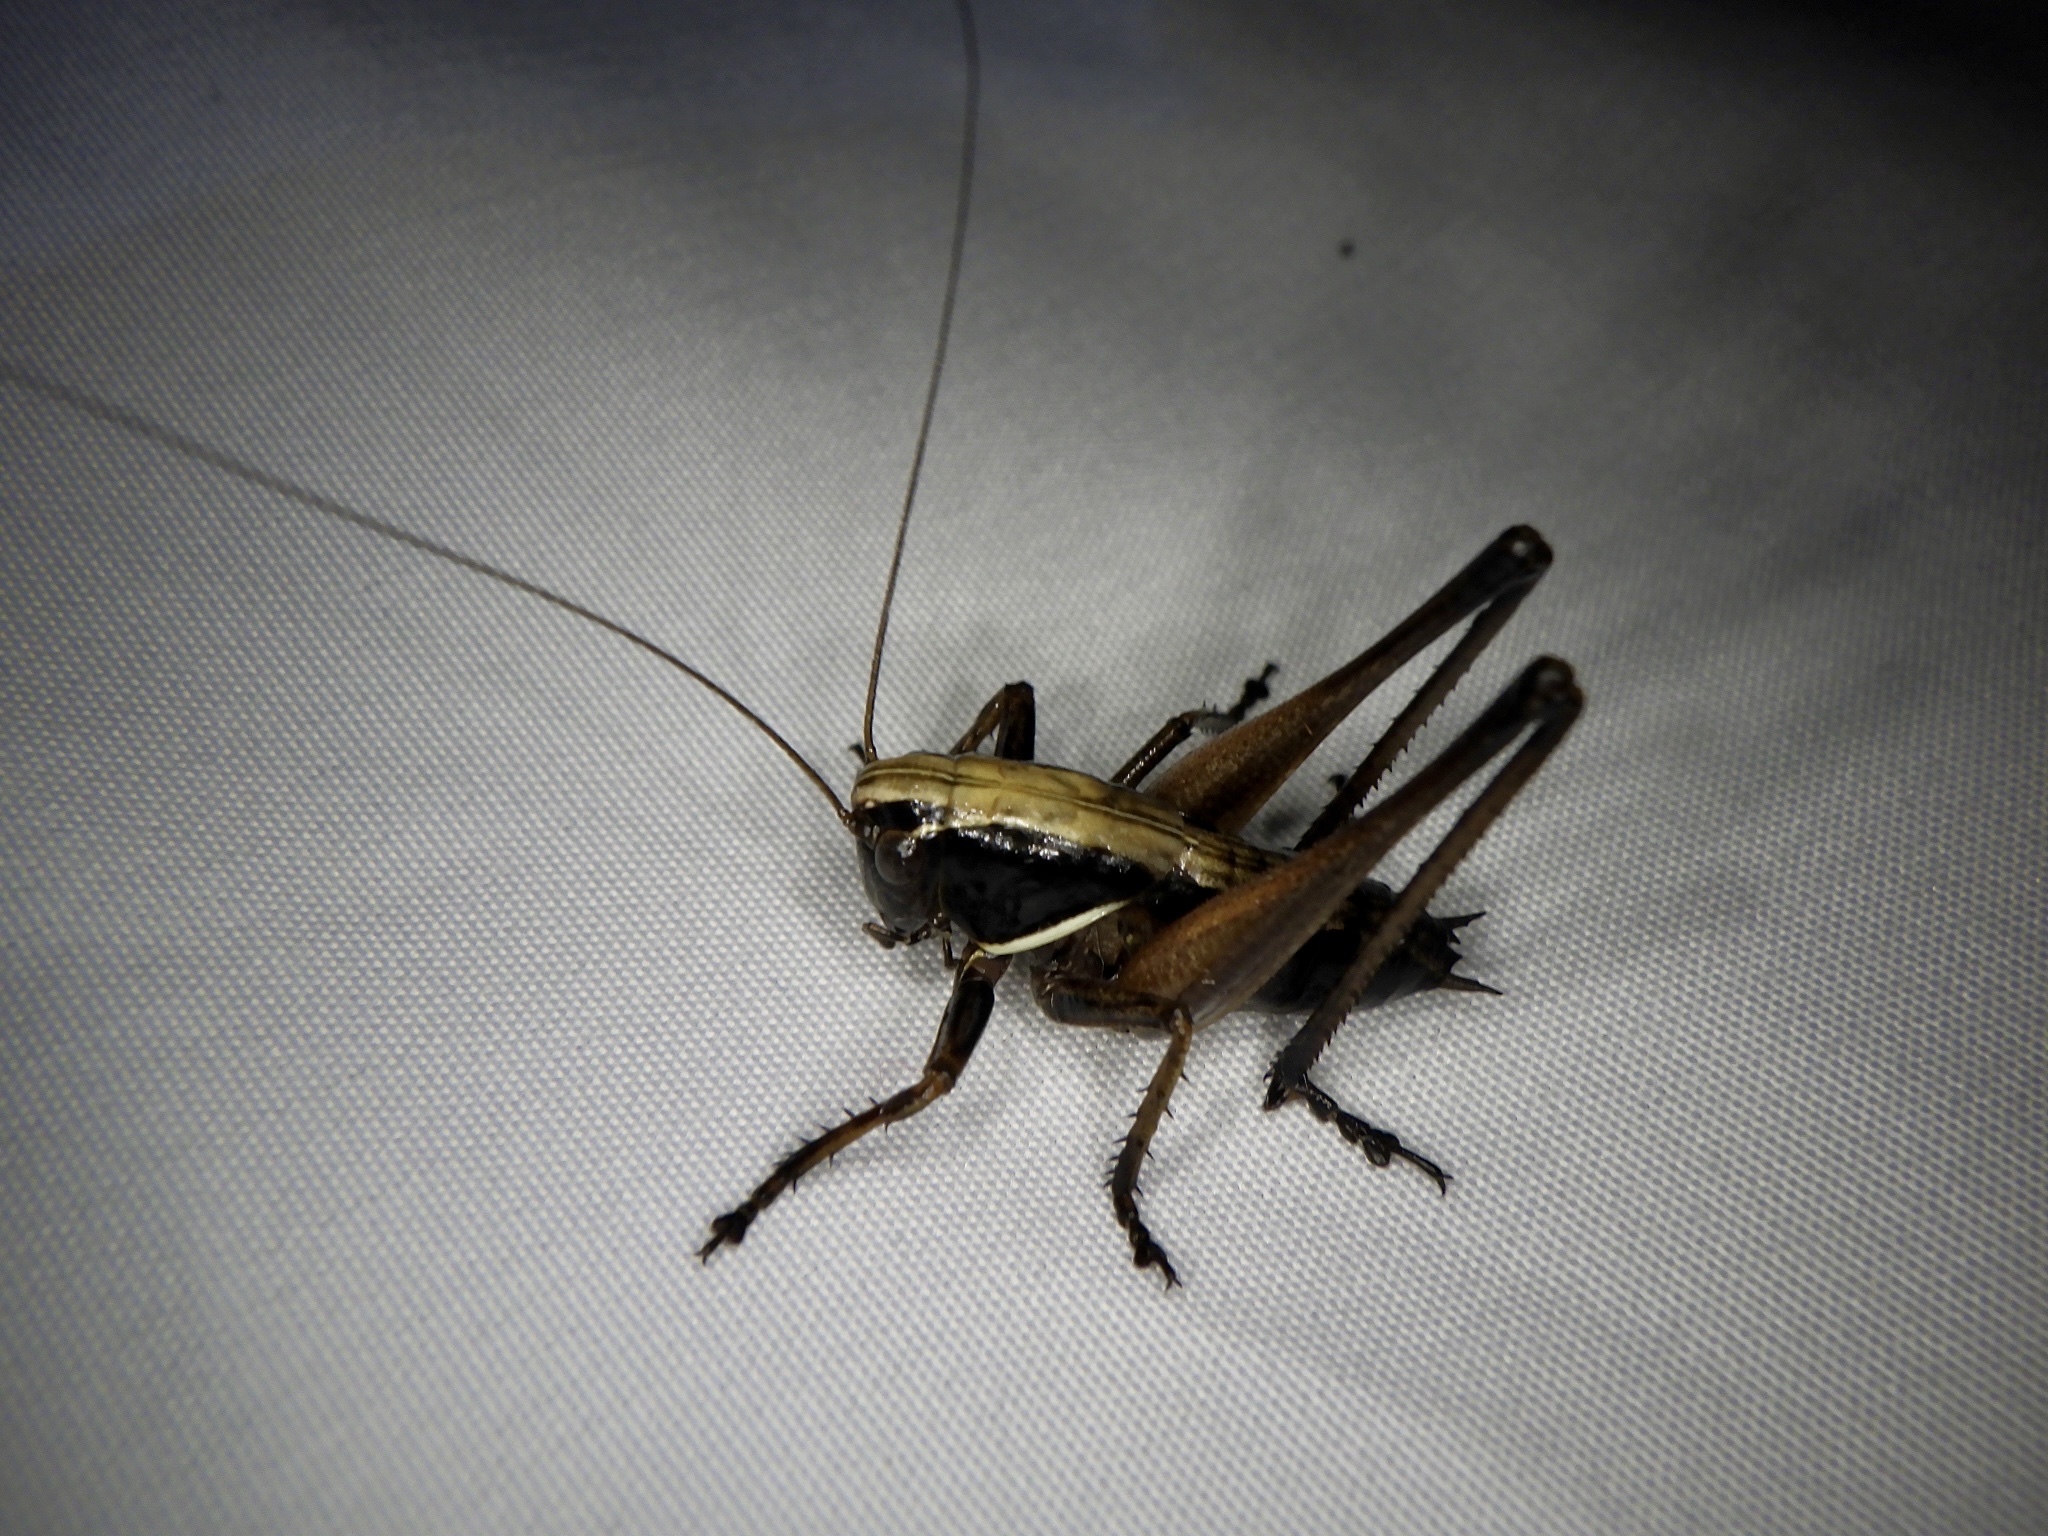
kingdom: Animalia
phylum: Arthropoda
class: Insecta
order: Orthoptera
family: Tettigoniidae
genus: Eobiana
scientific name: Eobiana engelhardti
